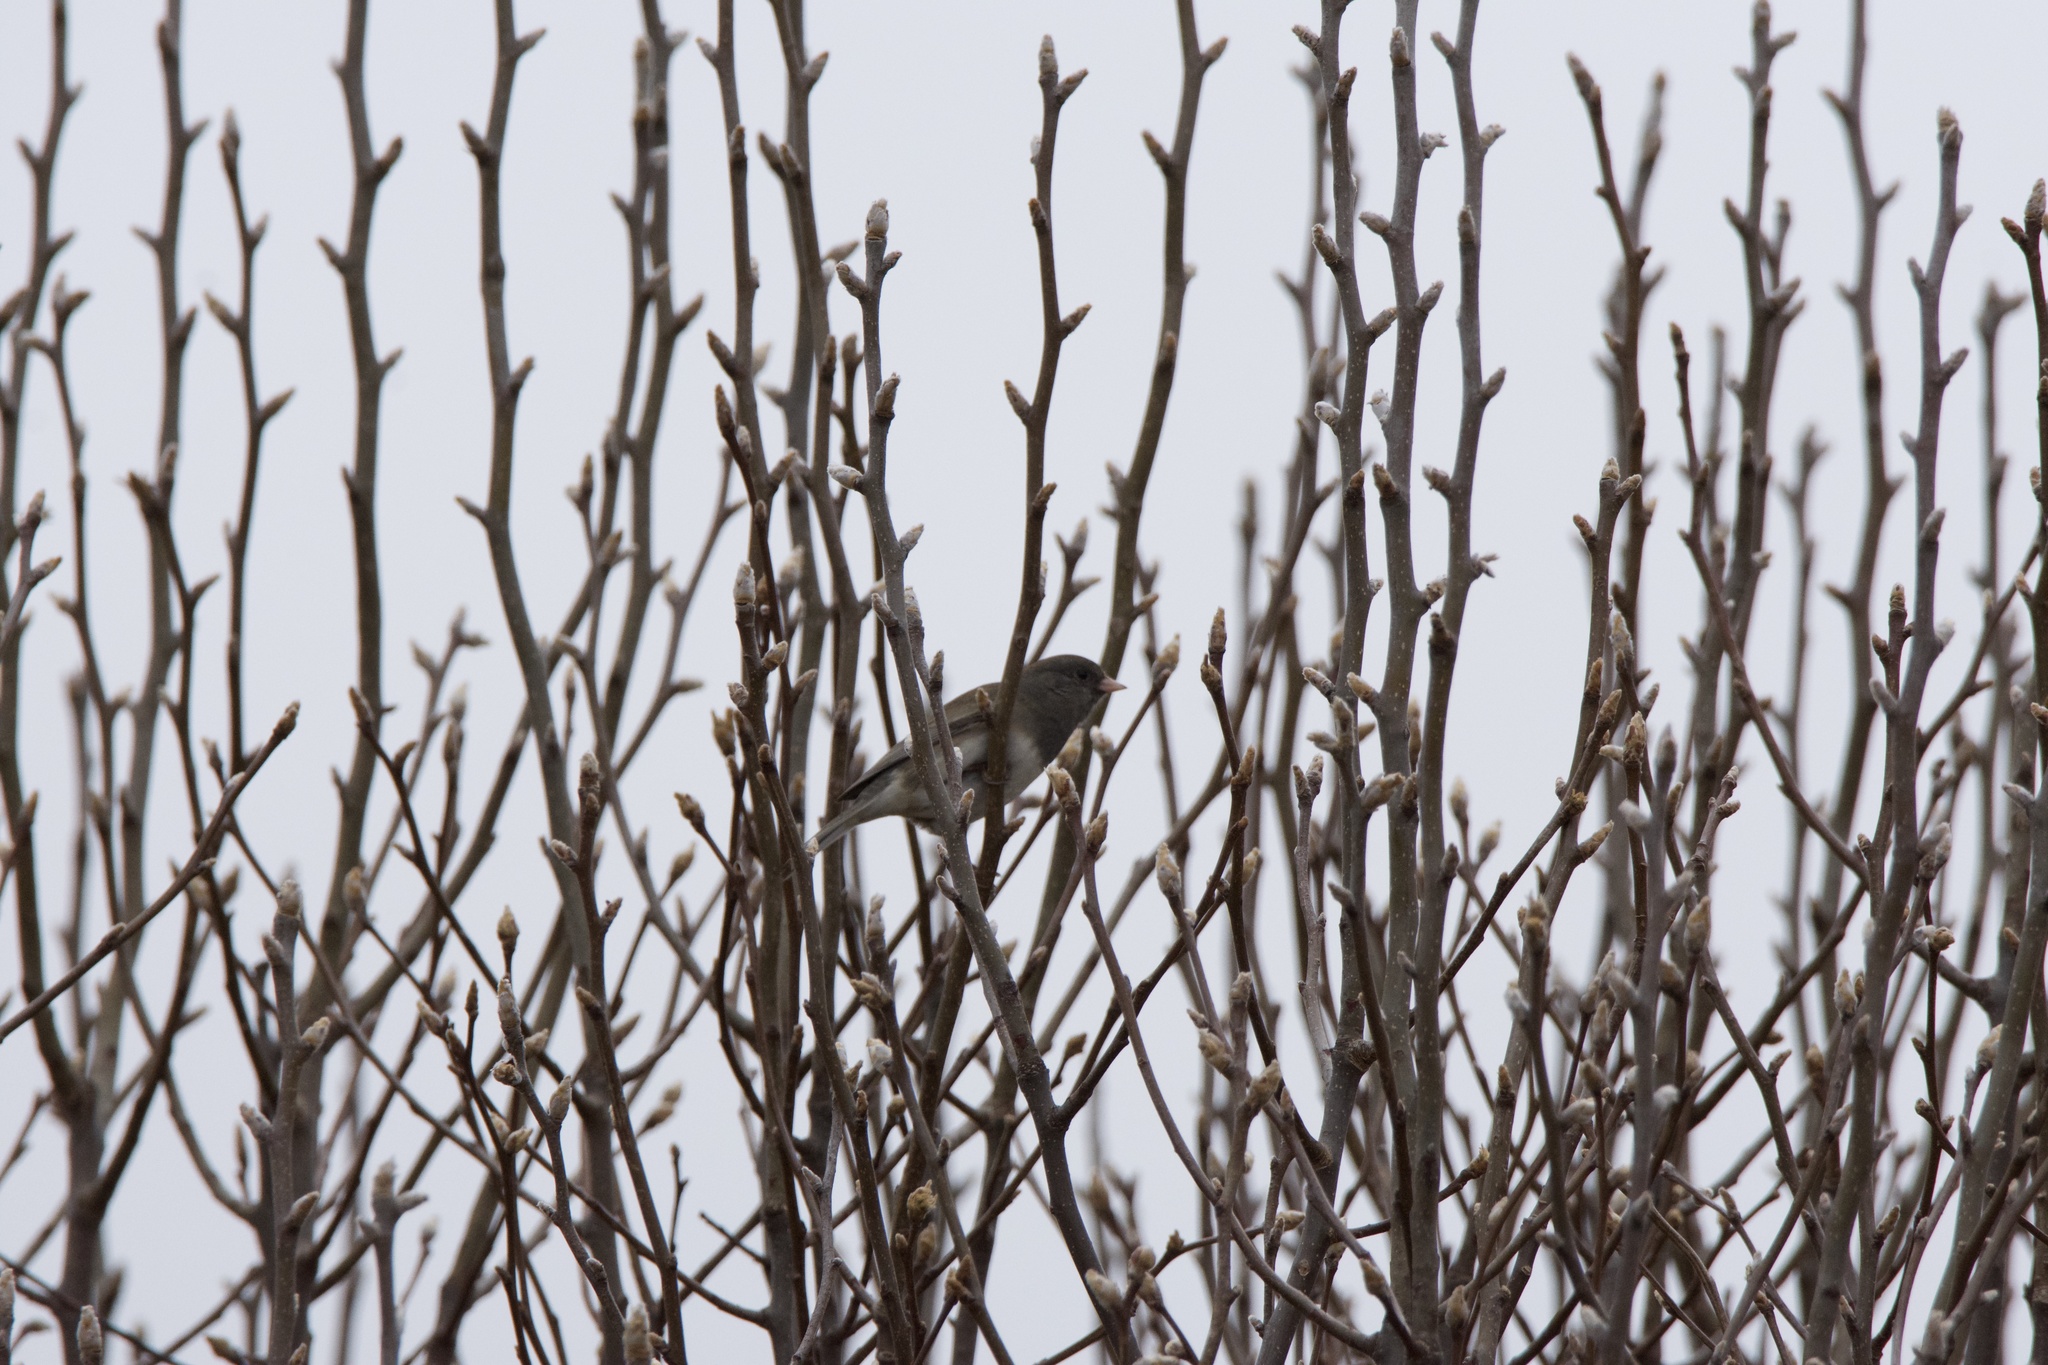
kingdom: Animalia
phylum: Chordata
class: Aves
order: Passeriformes
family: Passerellidae
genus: Junco
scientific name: Junco hyemalis
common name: Dark-eyed junco
